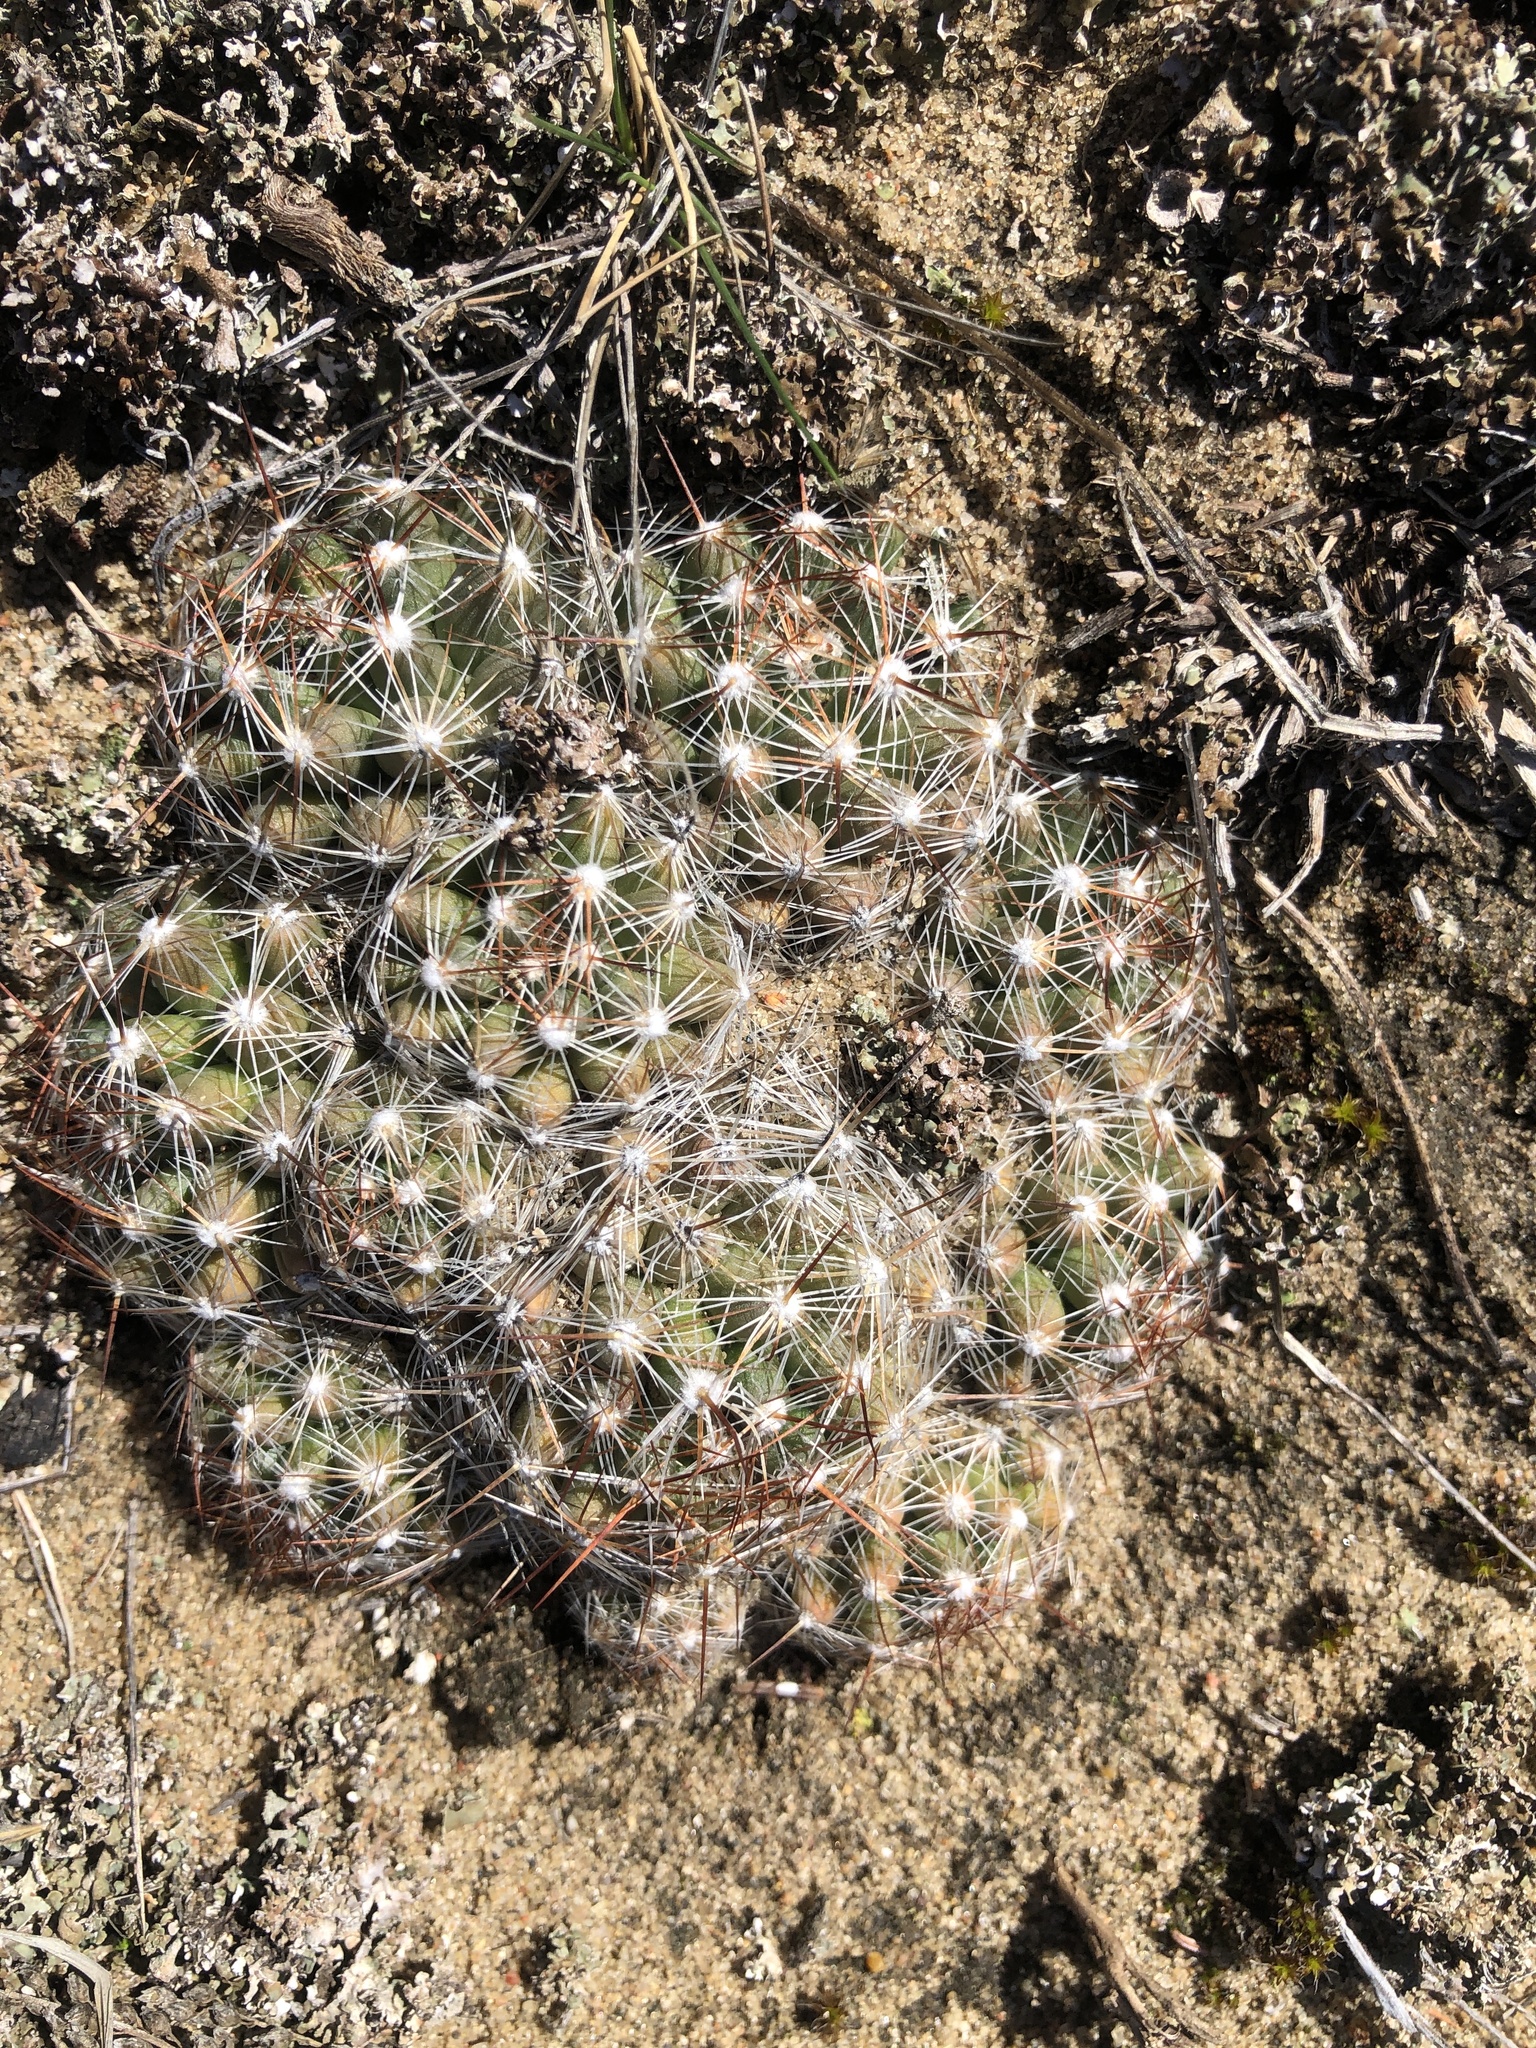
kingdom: Plantae
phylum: Tracheophyta
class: Magnoliopsida
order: Caryophyllales
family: Cactaceae
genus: Pelecyphora
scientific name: Pelecyphora vivipara
